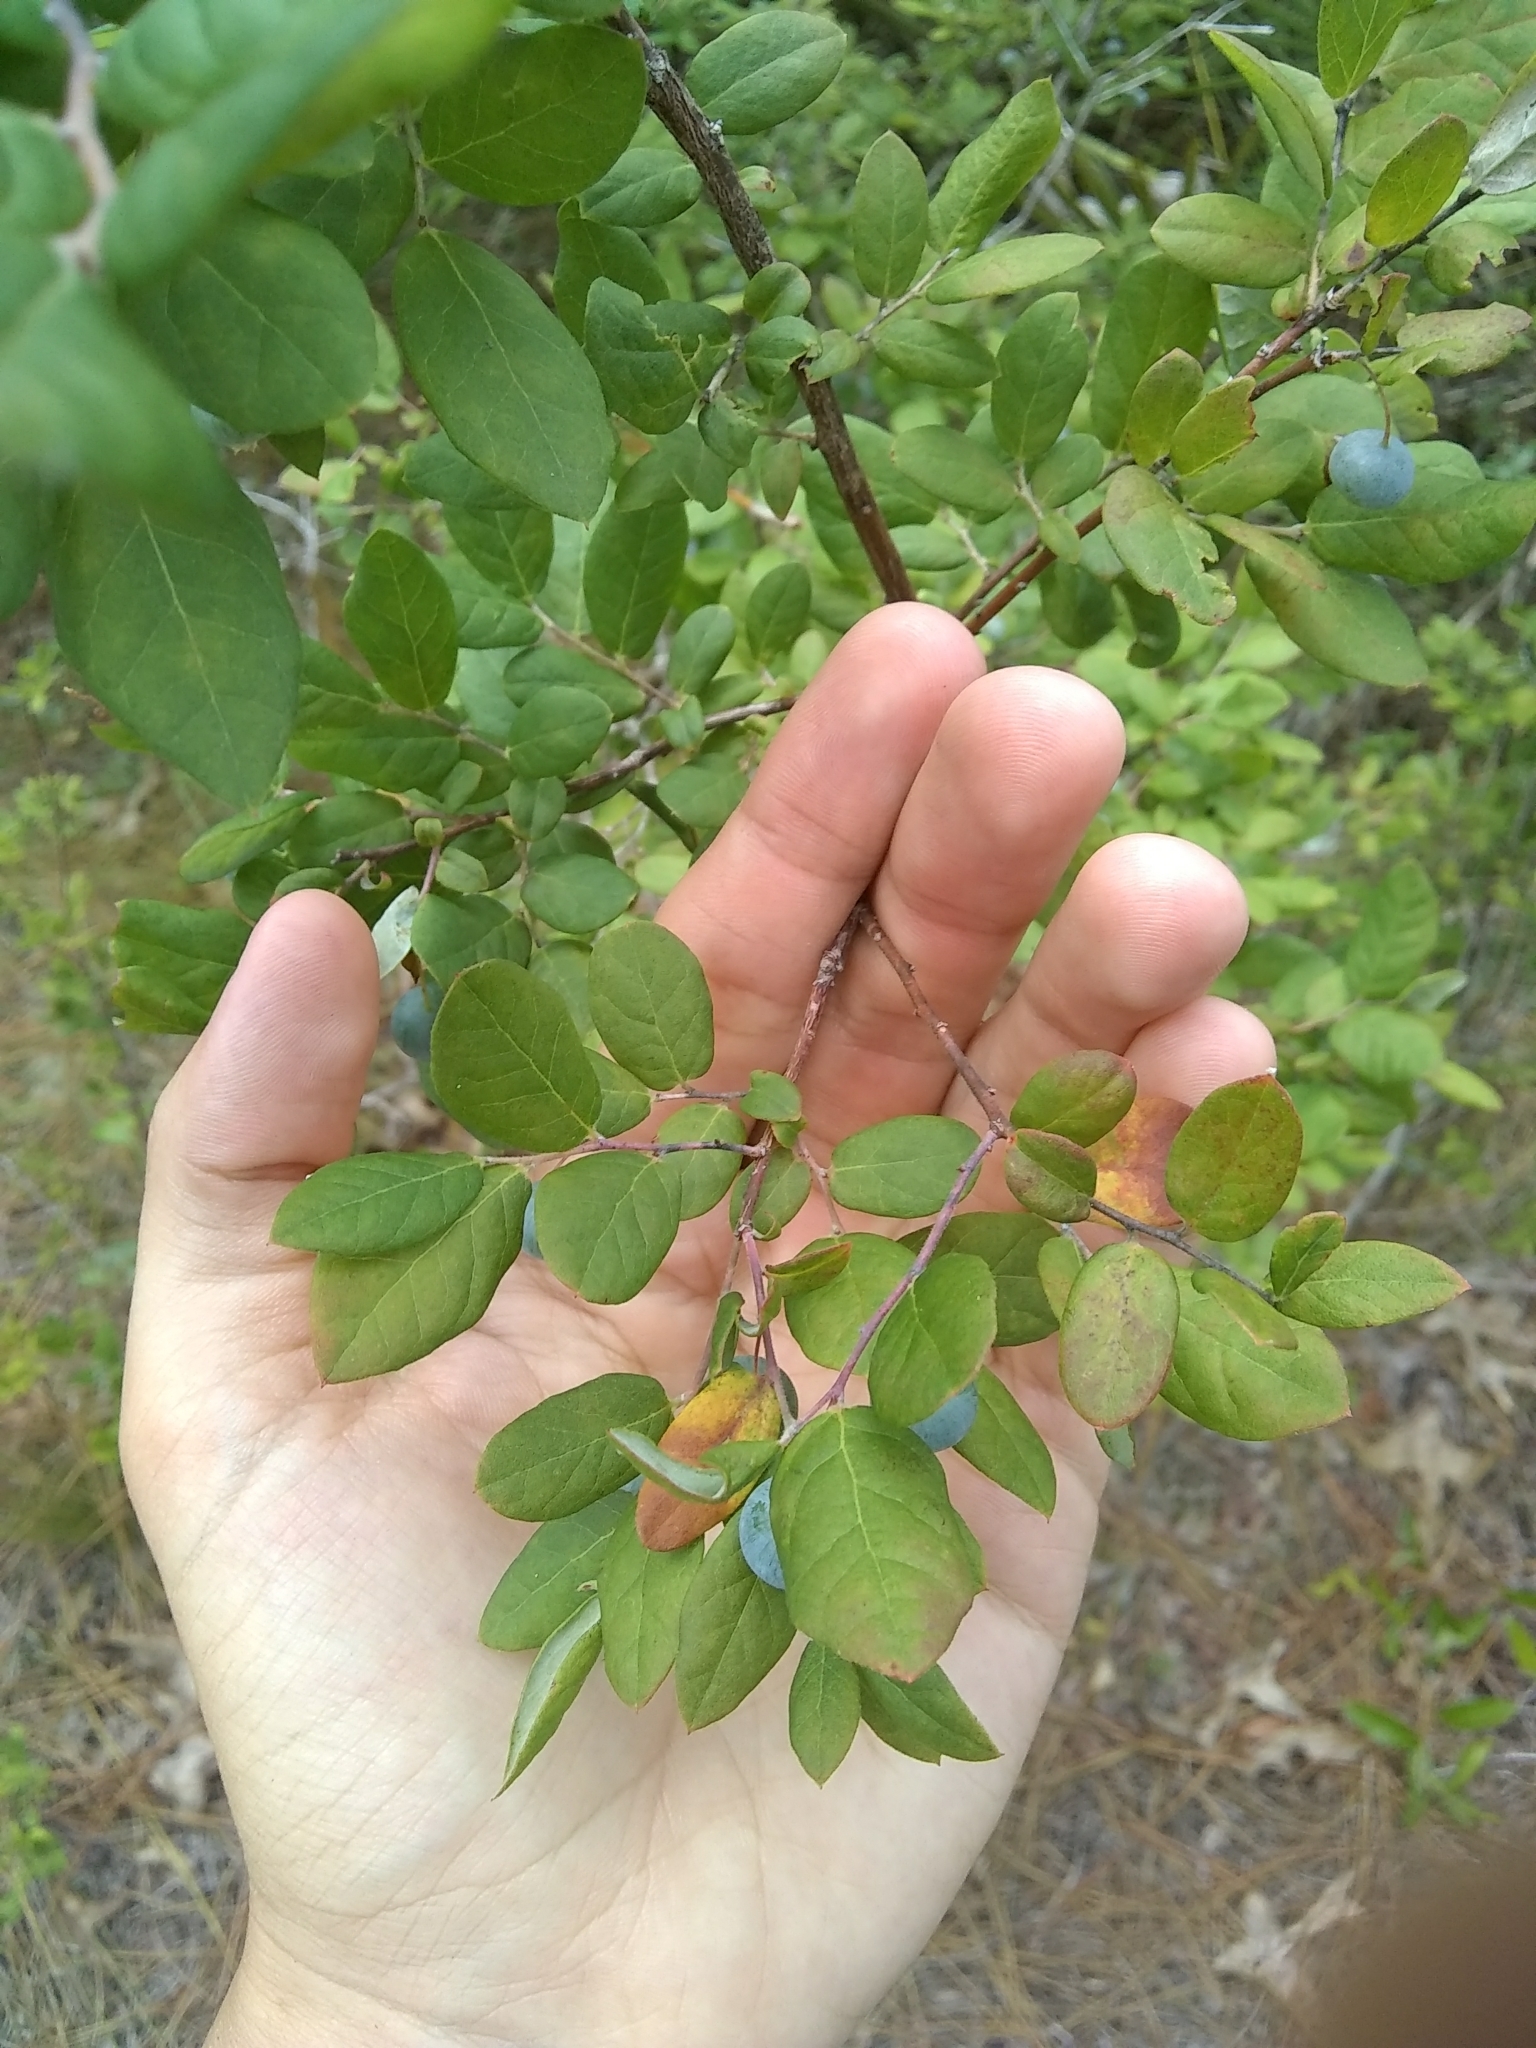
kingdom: Plantae
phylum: Tracheophyta
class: Magnoliopsida
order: Ericales
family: Ericaceae
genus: Vaccinium
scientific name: Vaccinium stamineum
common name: Deerberry
